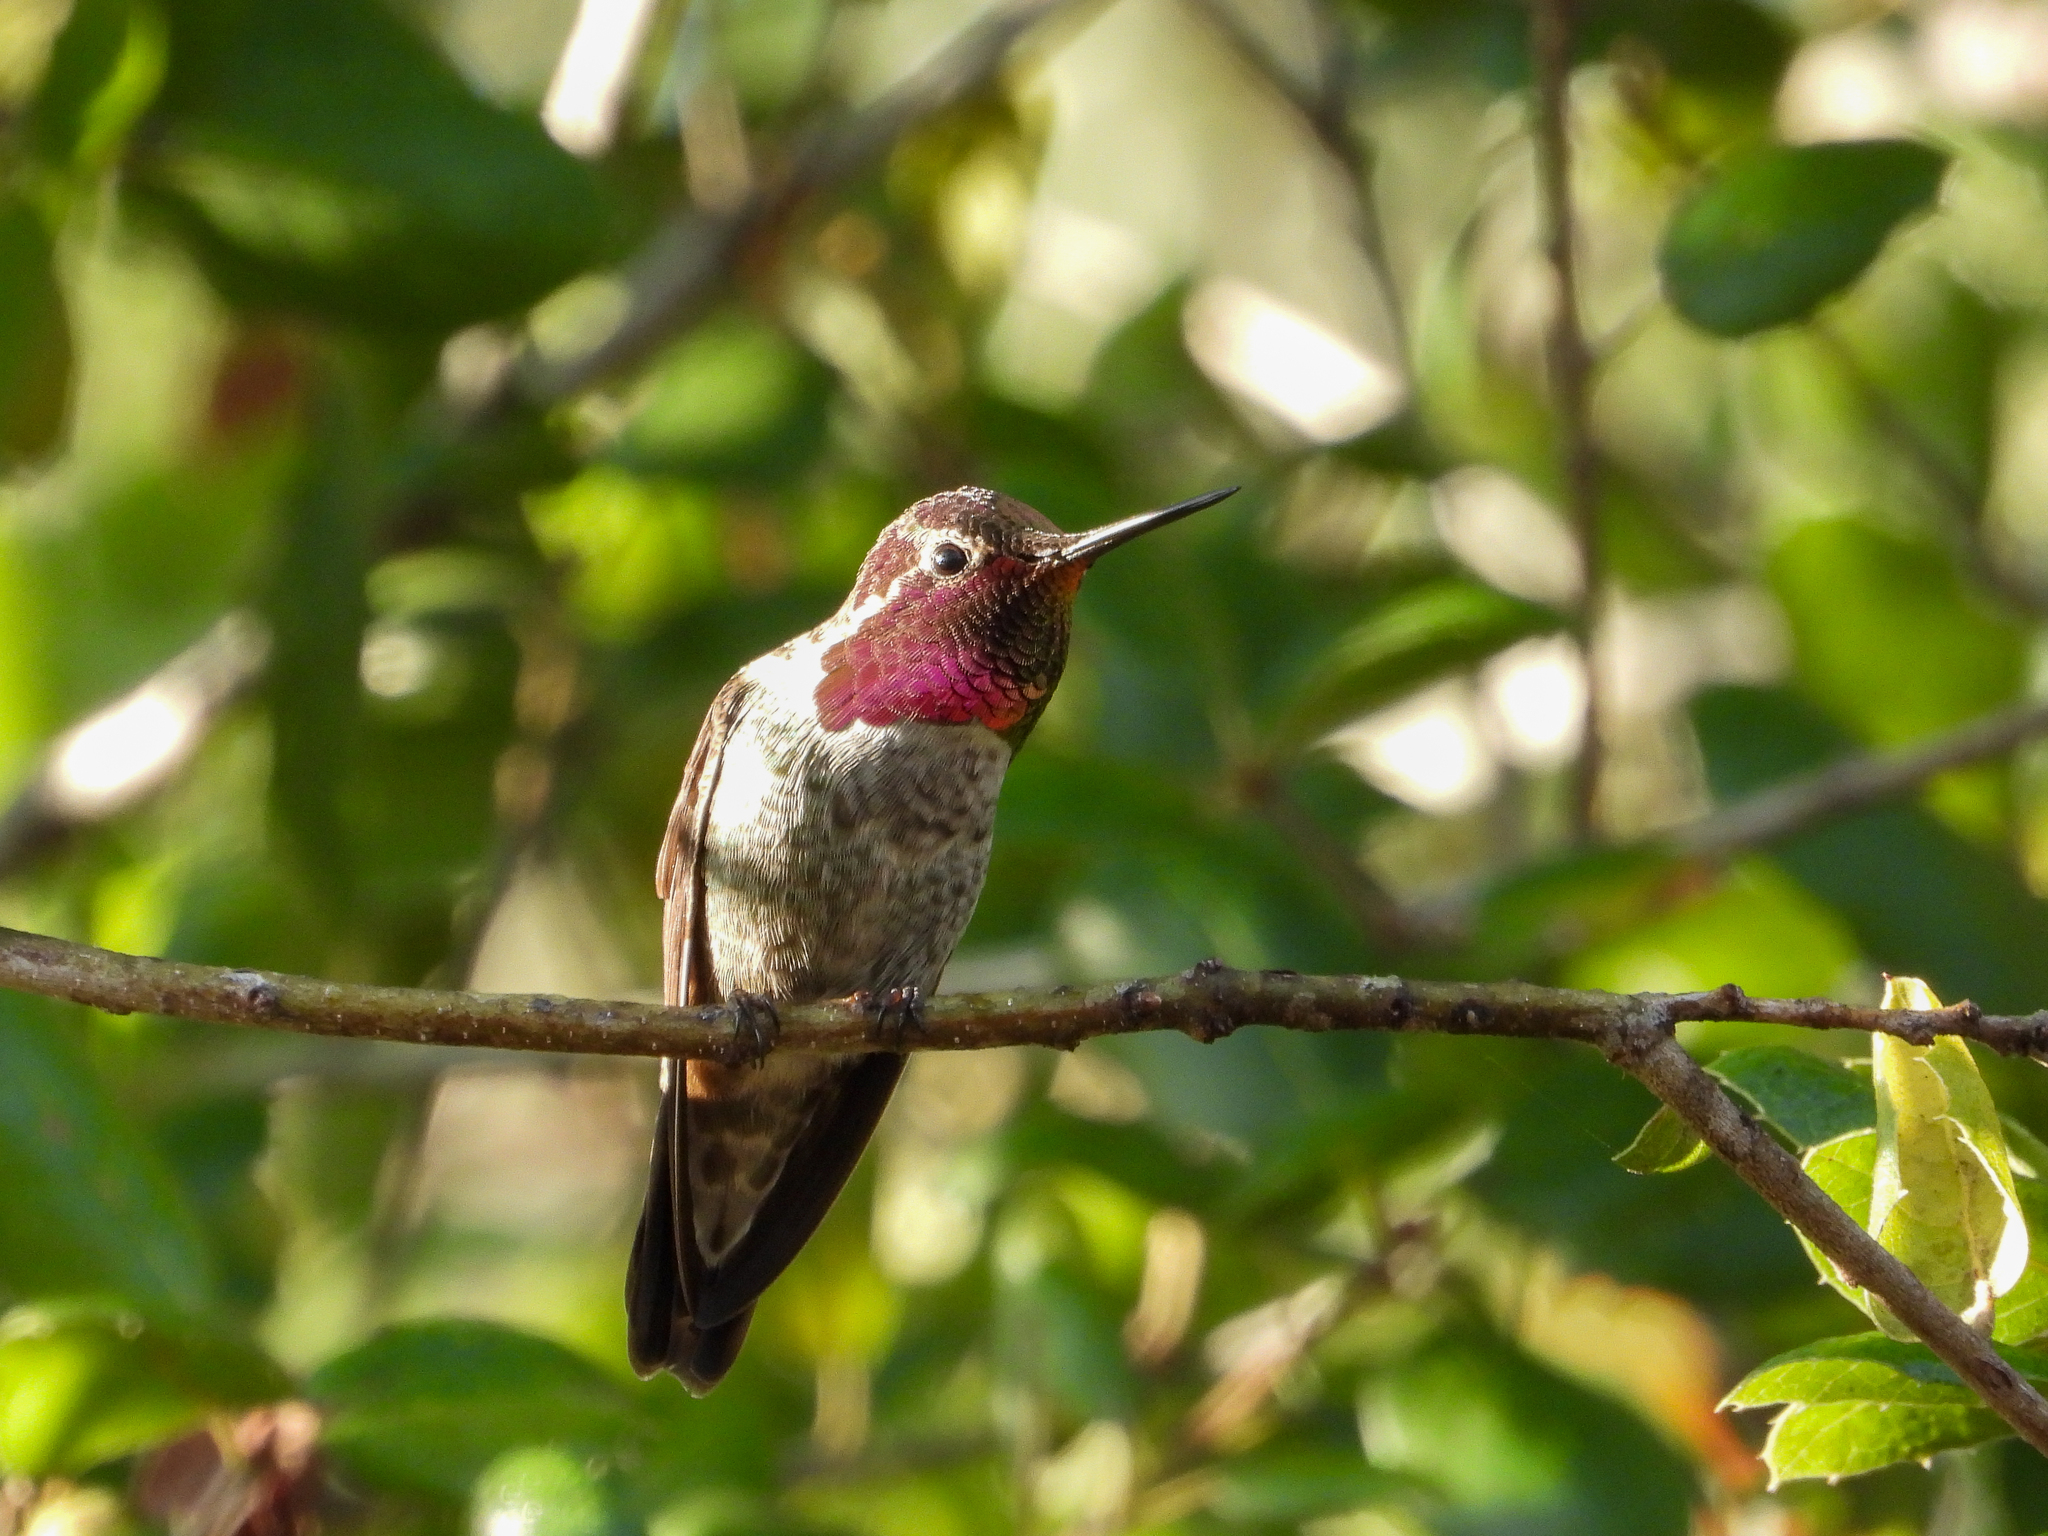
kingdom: Animalia
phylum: Chordata
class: Aves
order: Apodiformes
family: Trochilidae
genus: Calypte
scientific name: Calypte anna
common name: Anna's hummingbird
